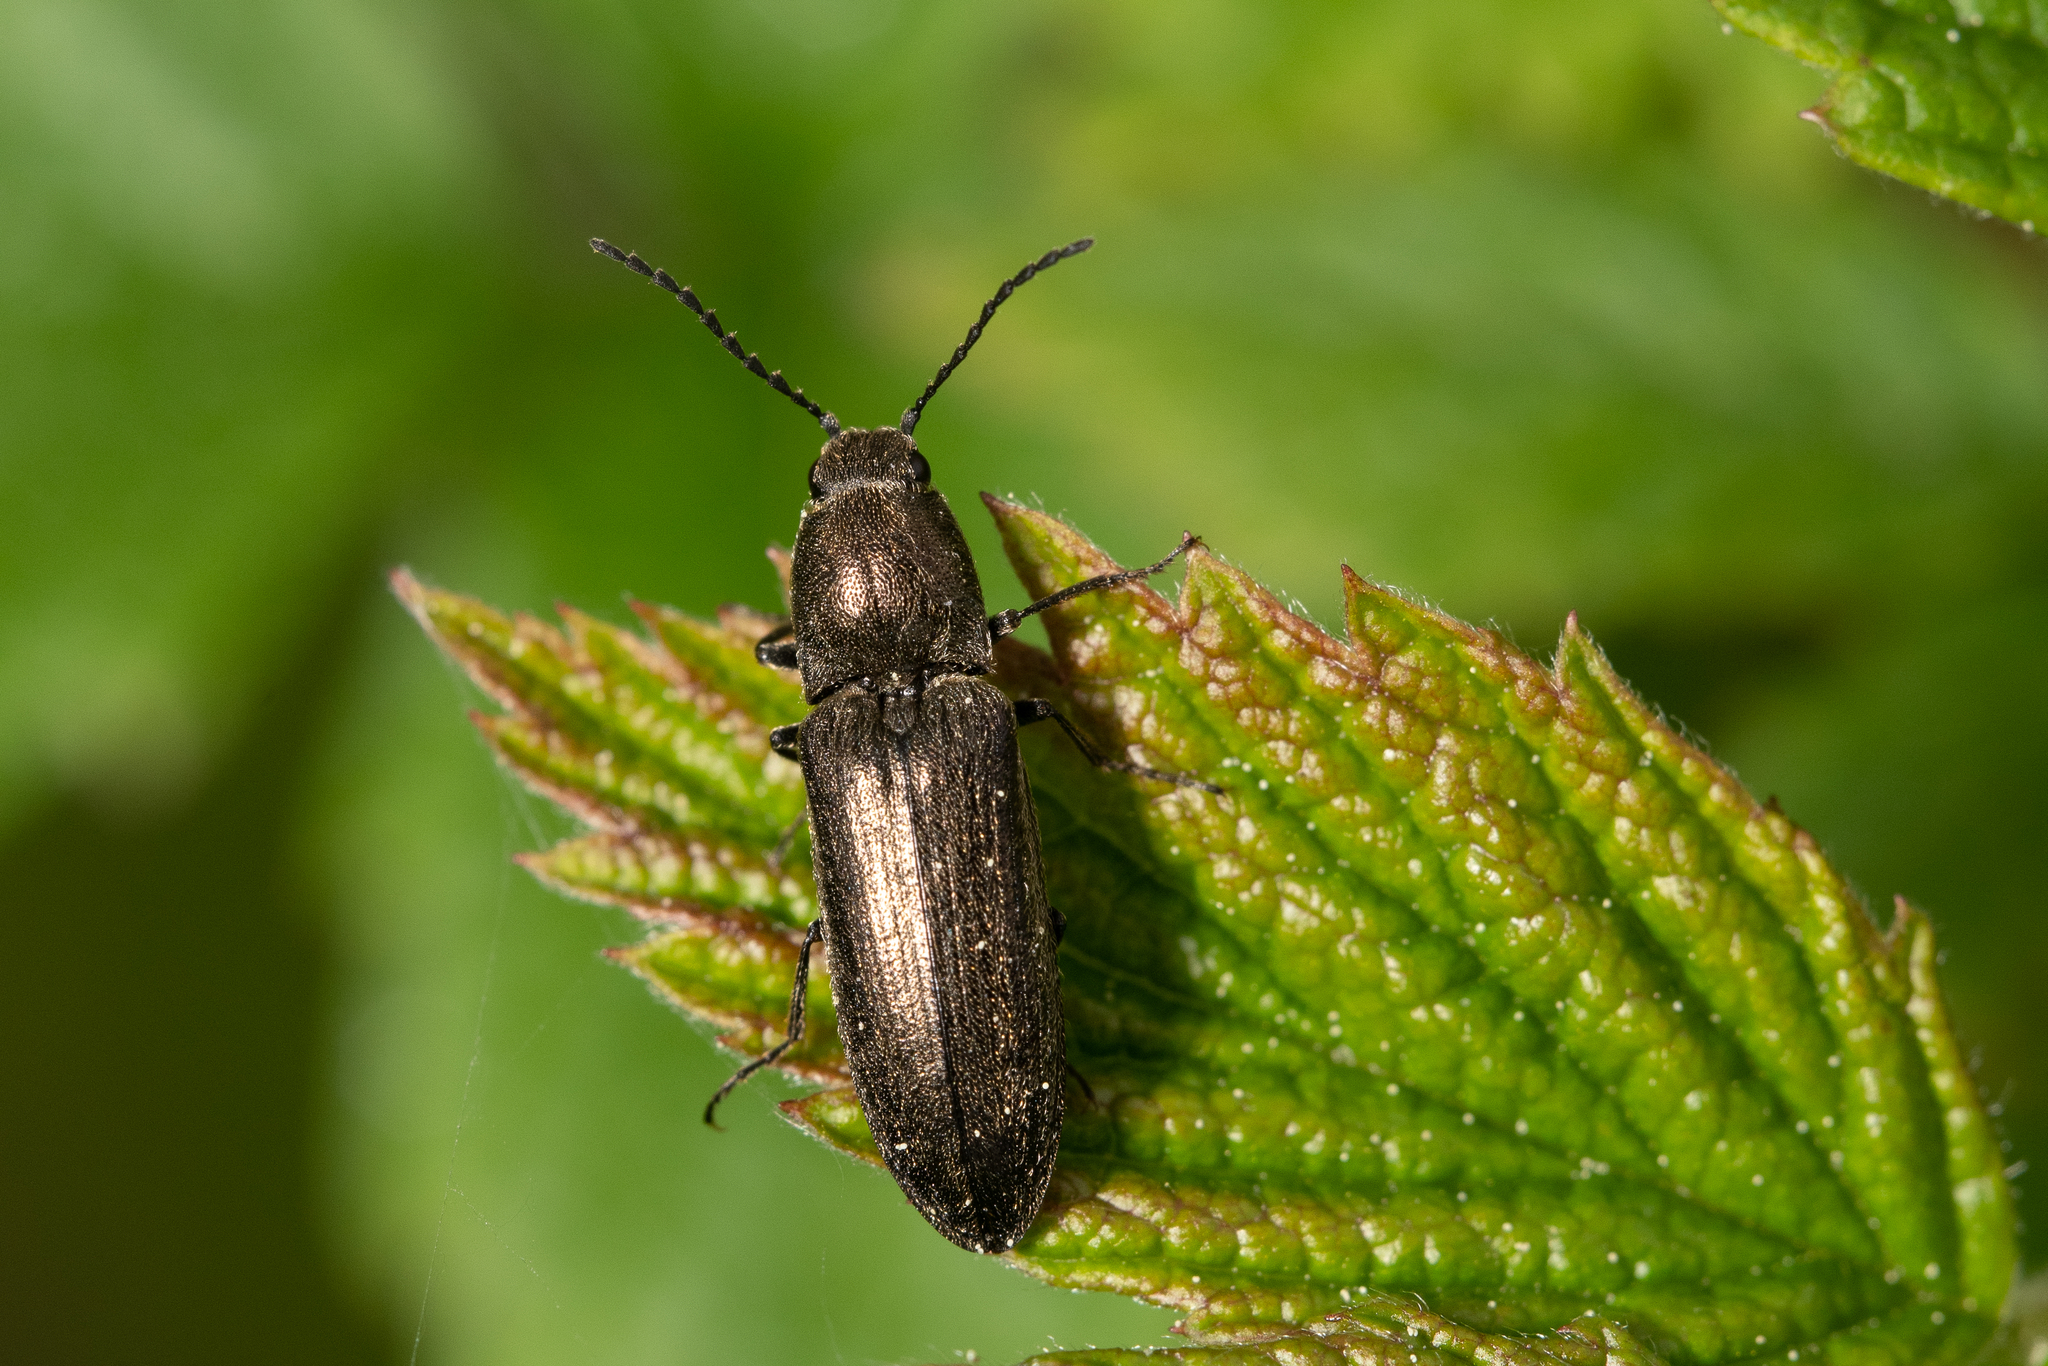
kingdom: Animalia
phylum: Arthropoda
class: Insecta
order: Coleoptera
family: Elateridae
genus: Cidnopus
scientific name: Cidnopus aeruginosus
